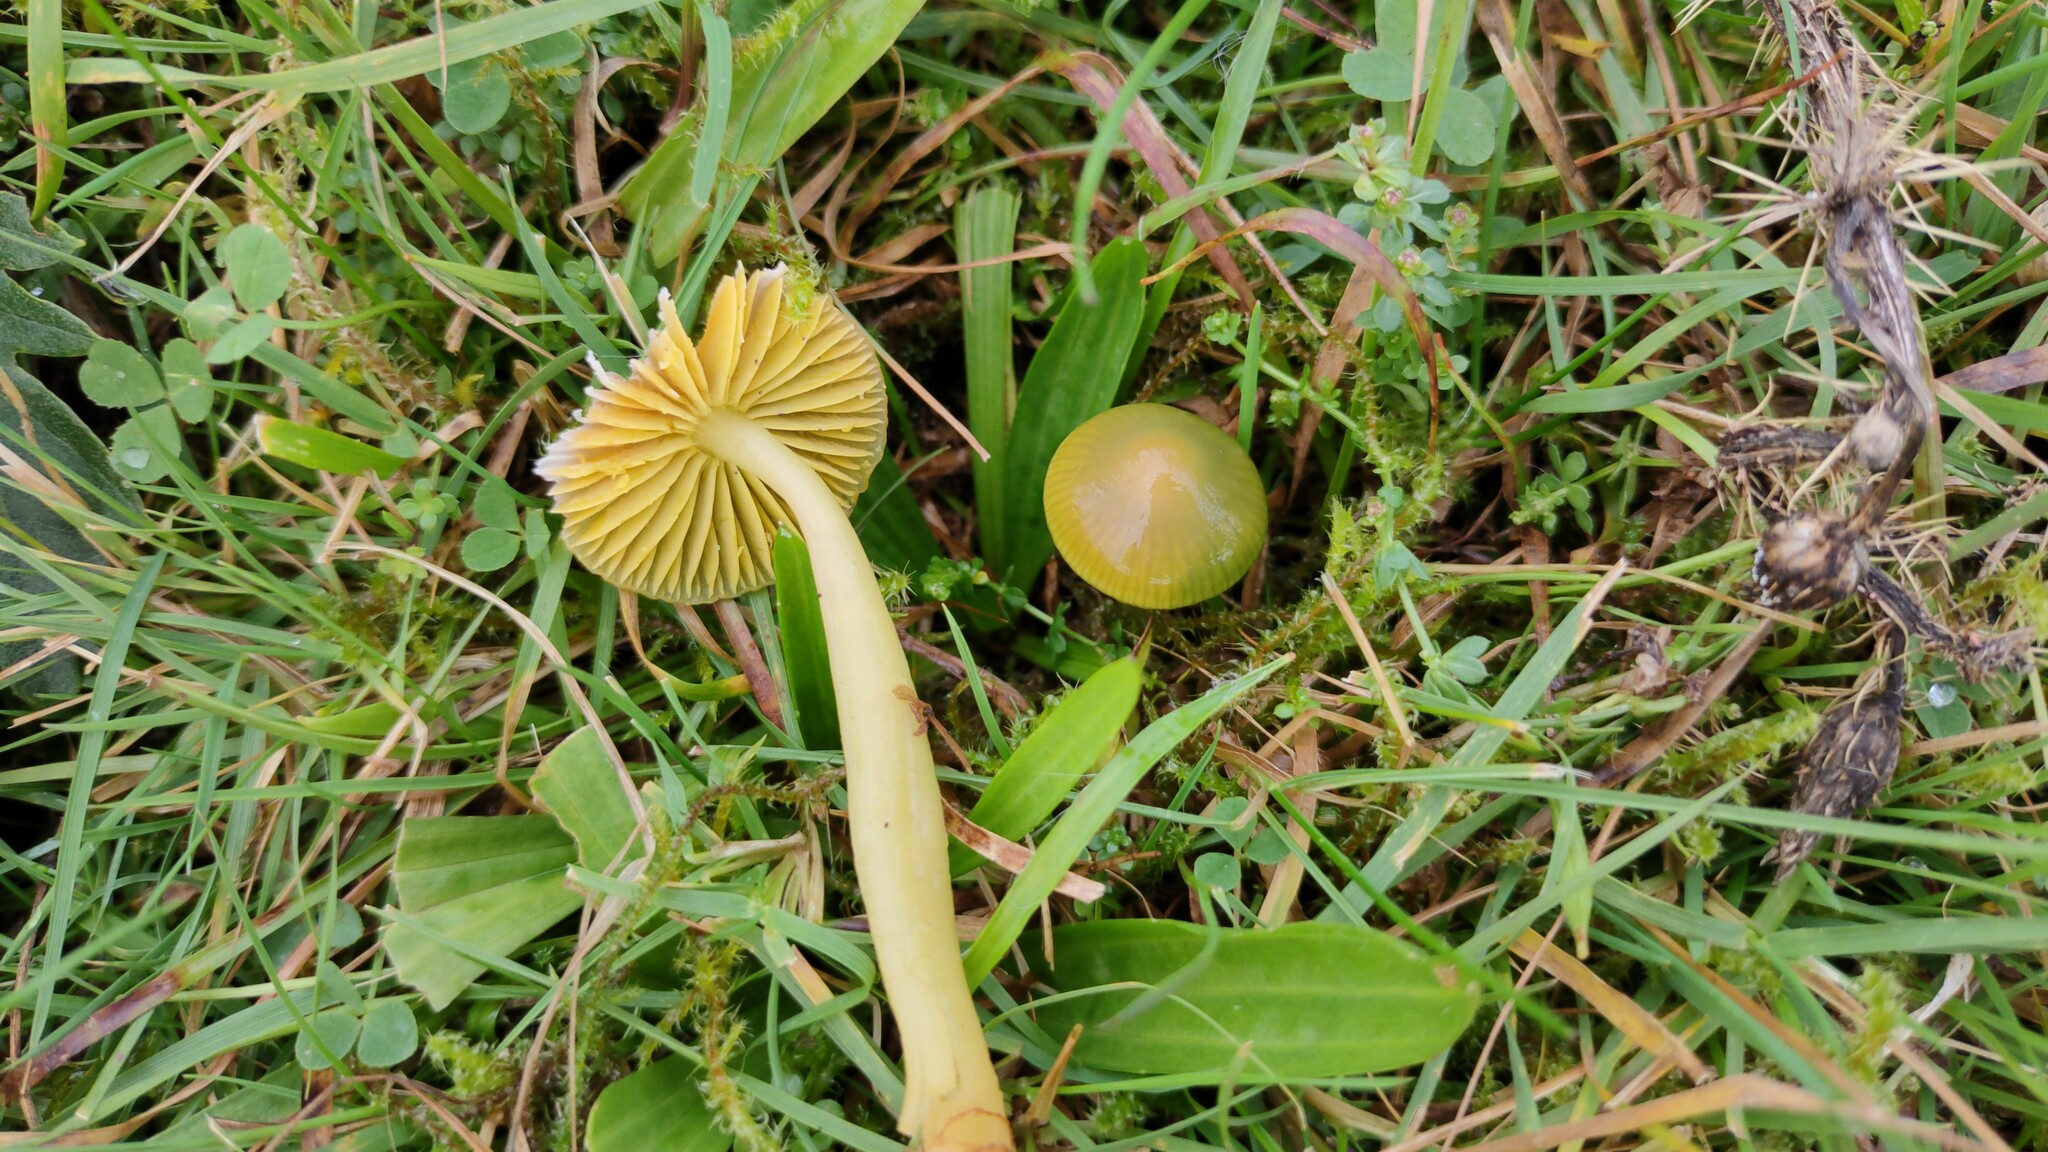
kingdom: Fungi
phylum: Basidiomycota
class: Agaricomycetes
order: Agaricales
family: Hygrophoraceae
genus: Gliophorus
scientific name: Gliophorus psittacinus
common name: Parrot wax-cap
